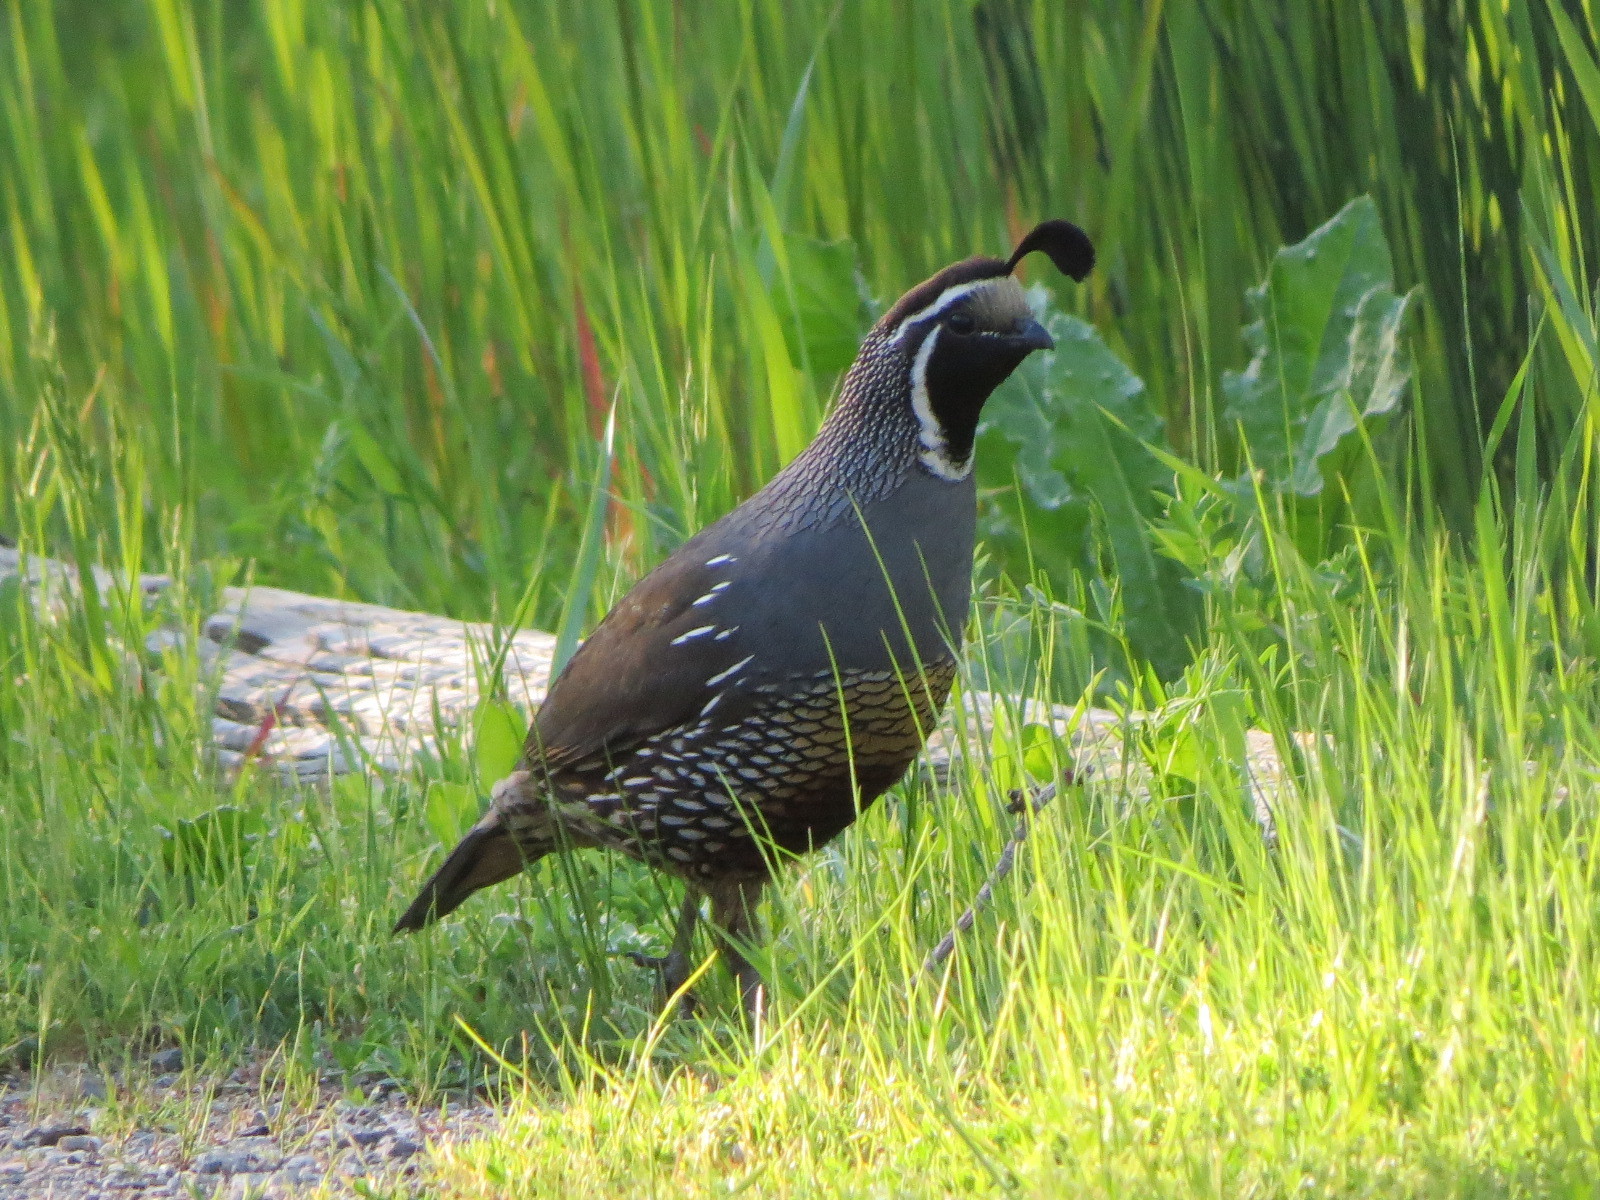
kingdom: Animalia
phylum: Chordata
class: Aves
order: Galliformes
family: Odontophoridae
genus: Callipepla
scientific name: Callipepla californica
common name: California quail
